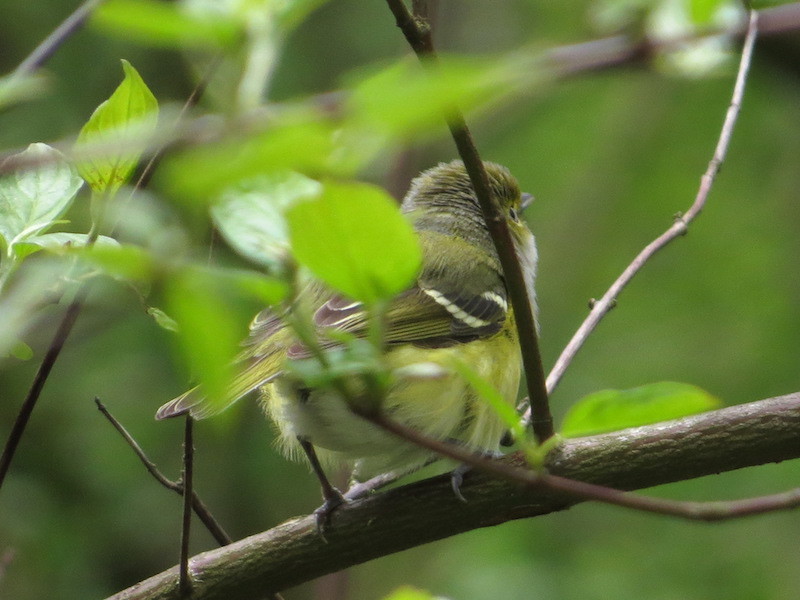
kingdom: Animalia
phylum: Chordata
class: Aves
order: Passeriformes
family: Vireonidae
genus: Vireo
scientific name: Vireo griseus
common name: White-eyed vireo
